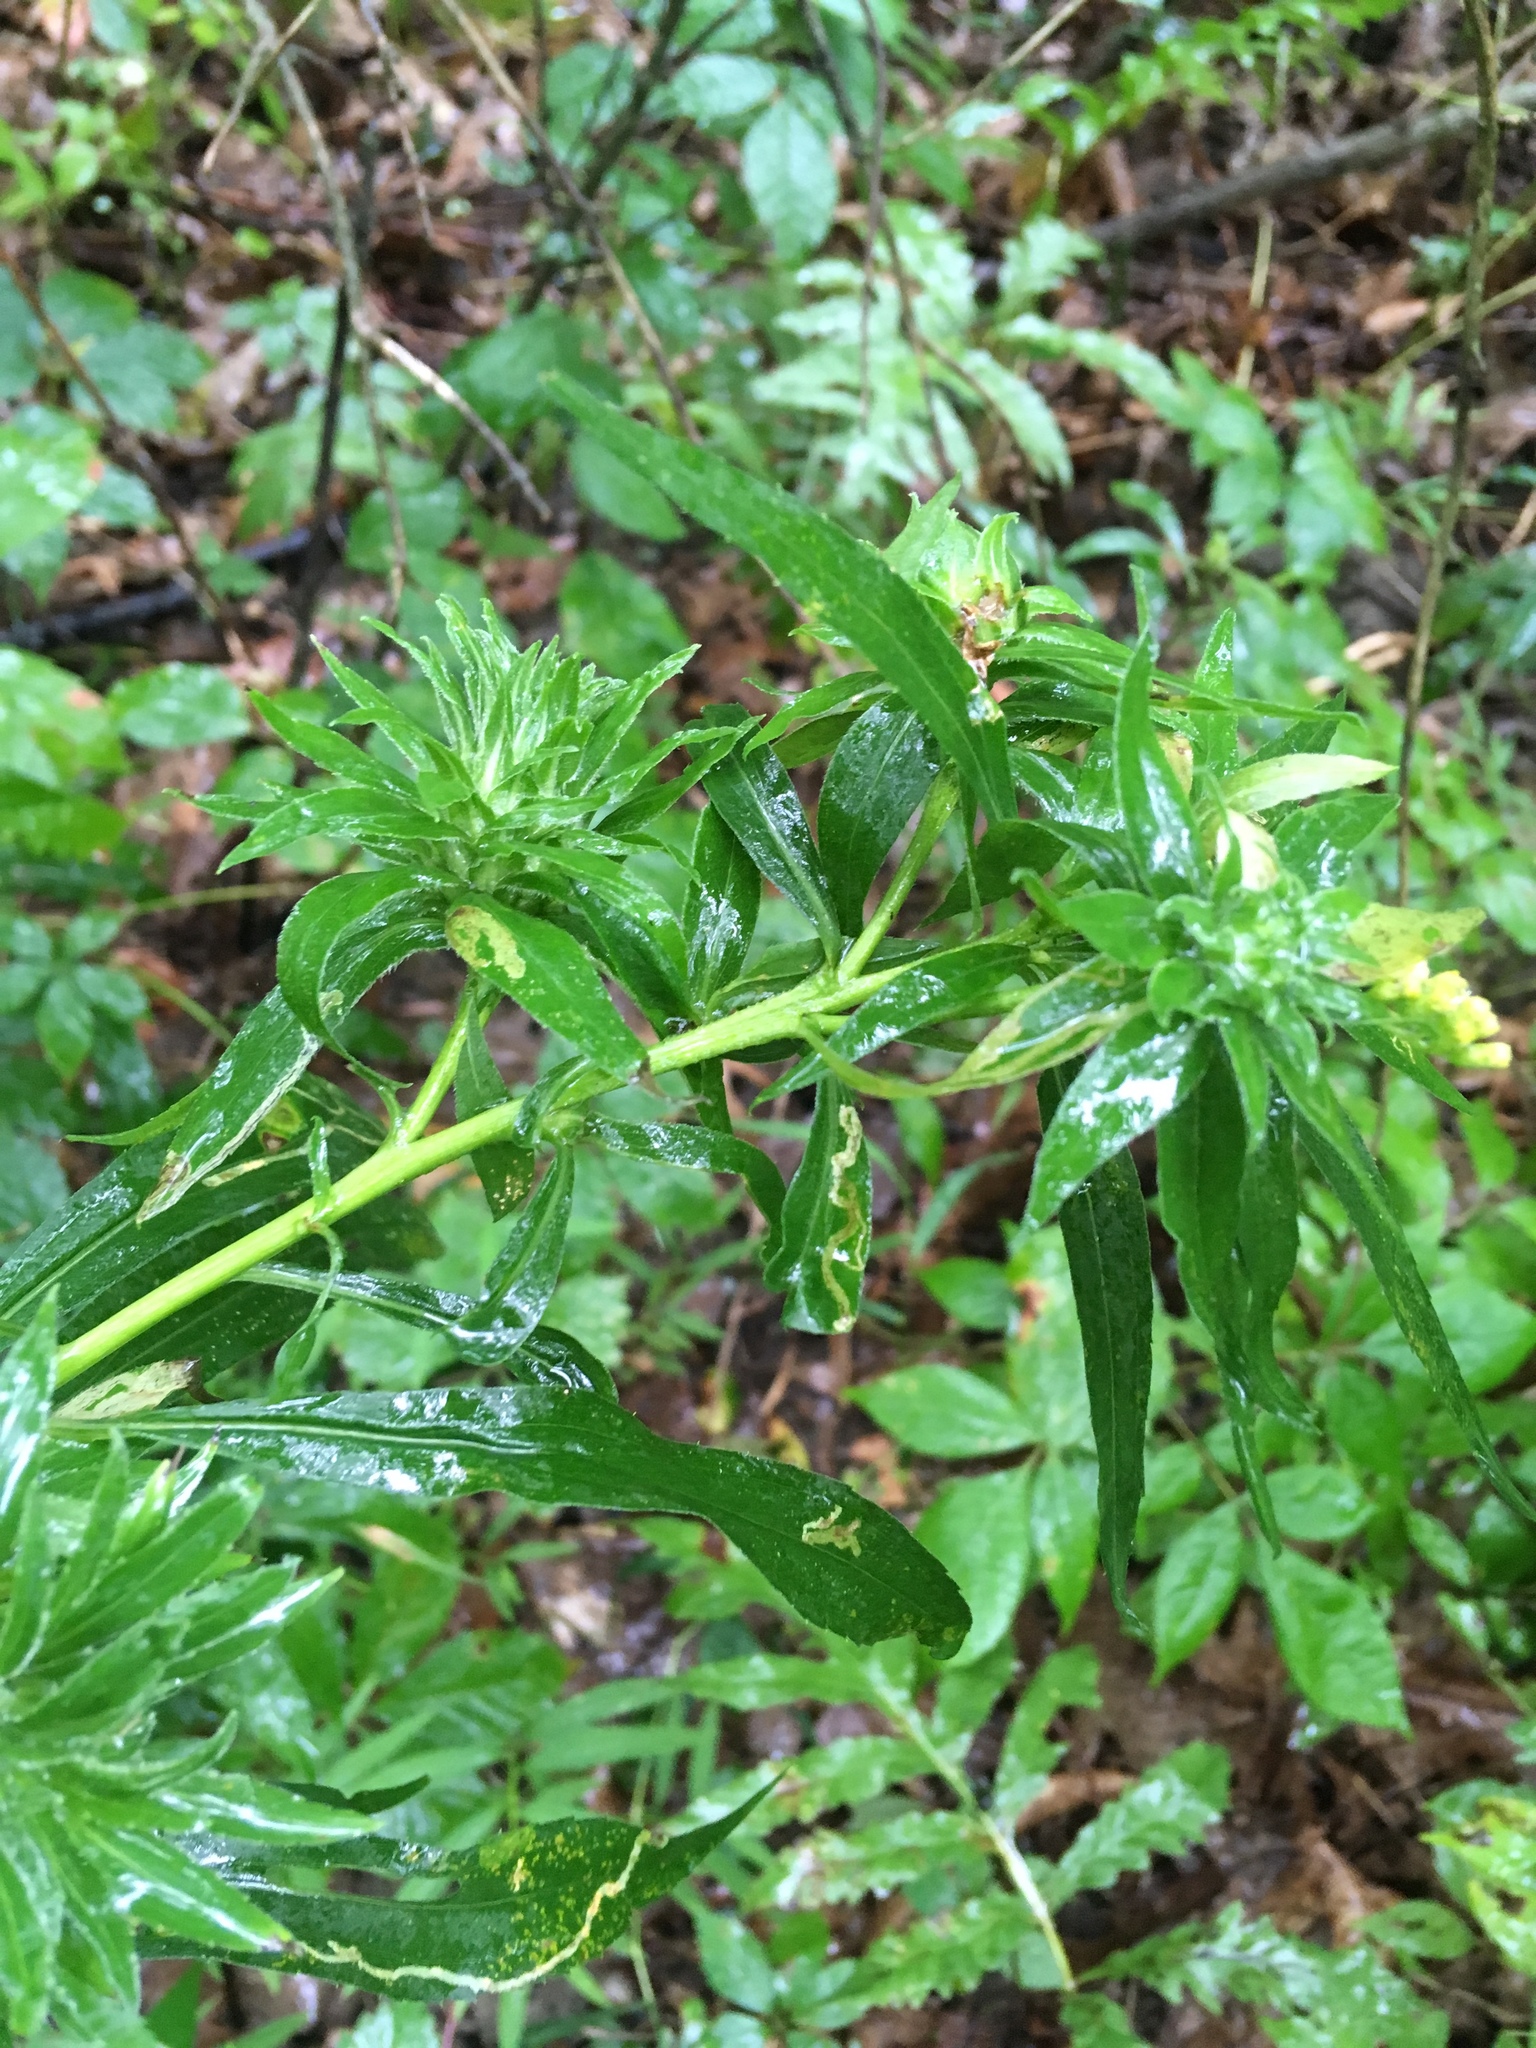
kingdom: Animalia
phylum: Arthropoda
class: Insecta
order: Diptera
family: Tephritidae
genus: Procecidochares
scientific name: Procecidochares atra
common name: Goldenrod brussels sprout gall fly
